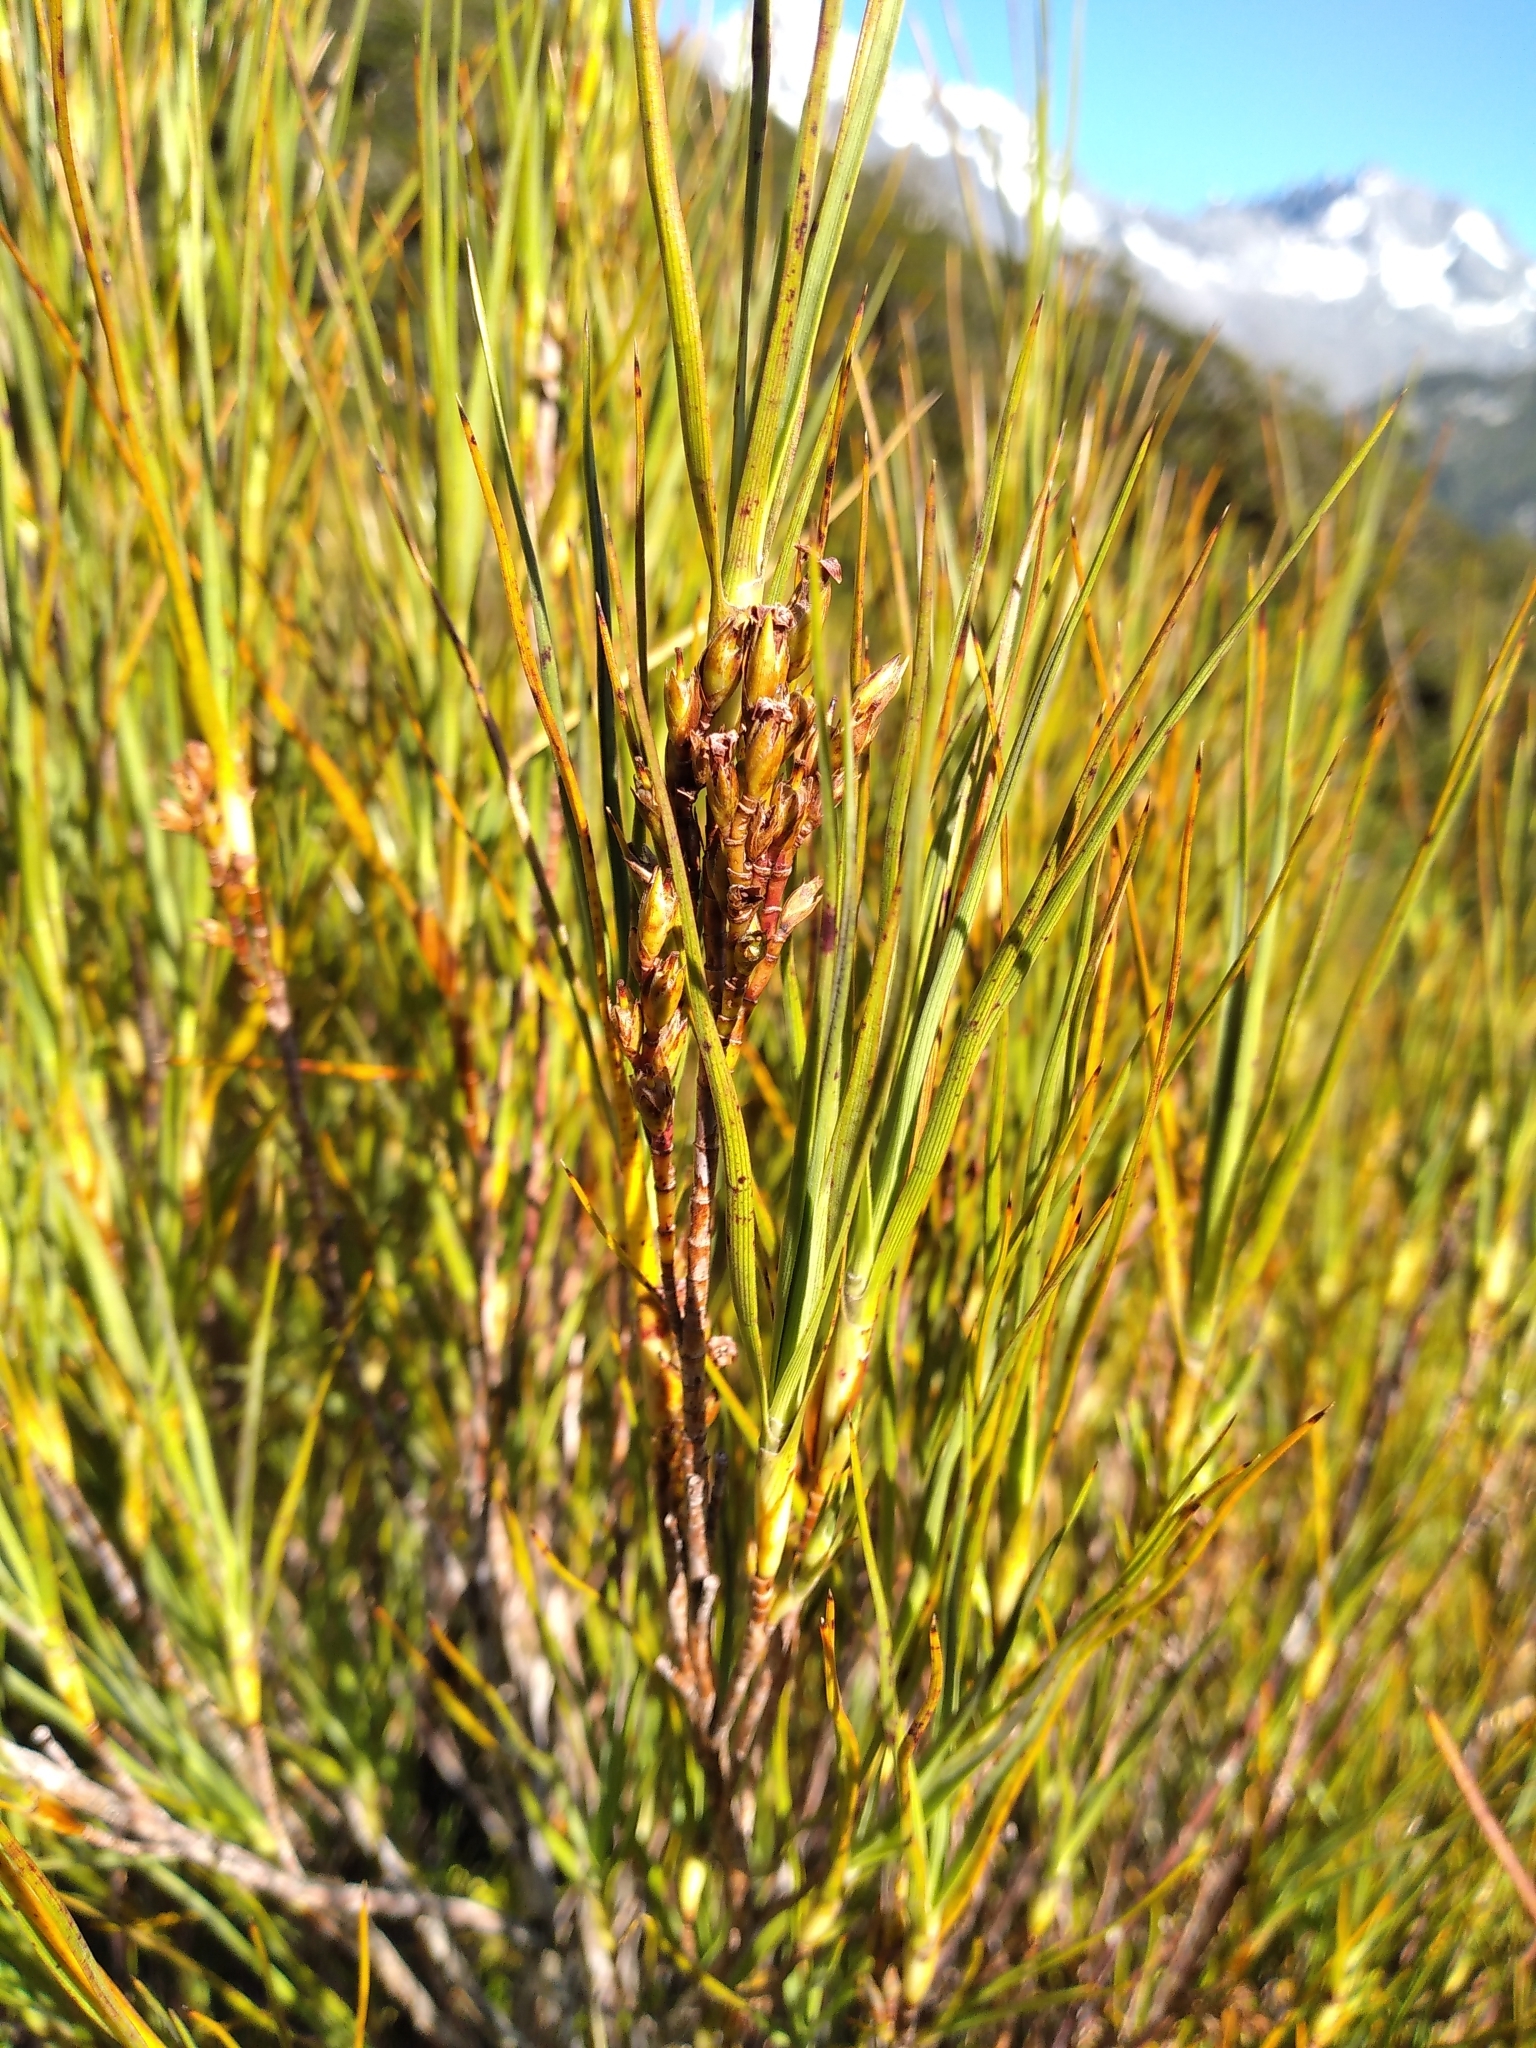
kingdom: Plantae
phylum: Tracheophyta
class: Magnoliopsida
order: Ericales
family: Ericaceae
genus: Dracophyllum
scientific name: Dracophyllum longifolium
